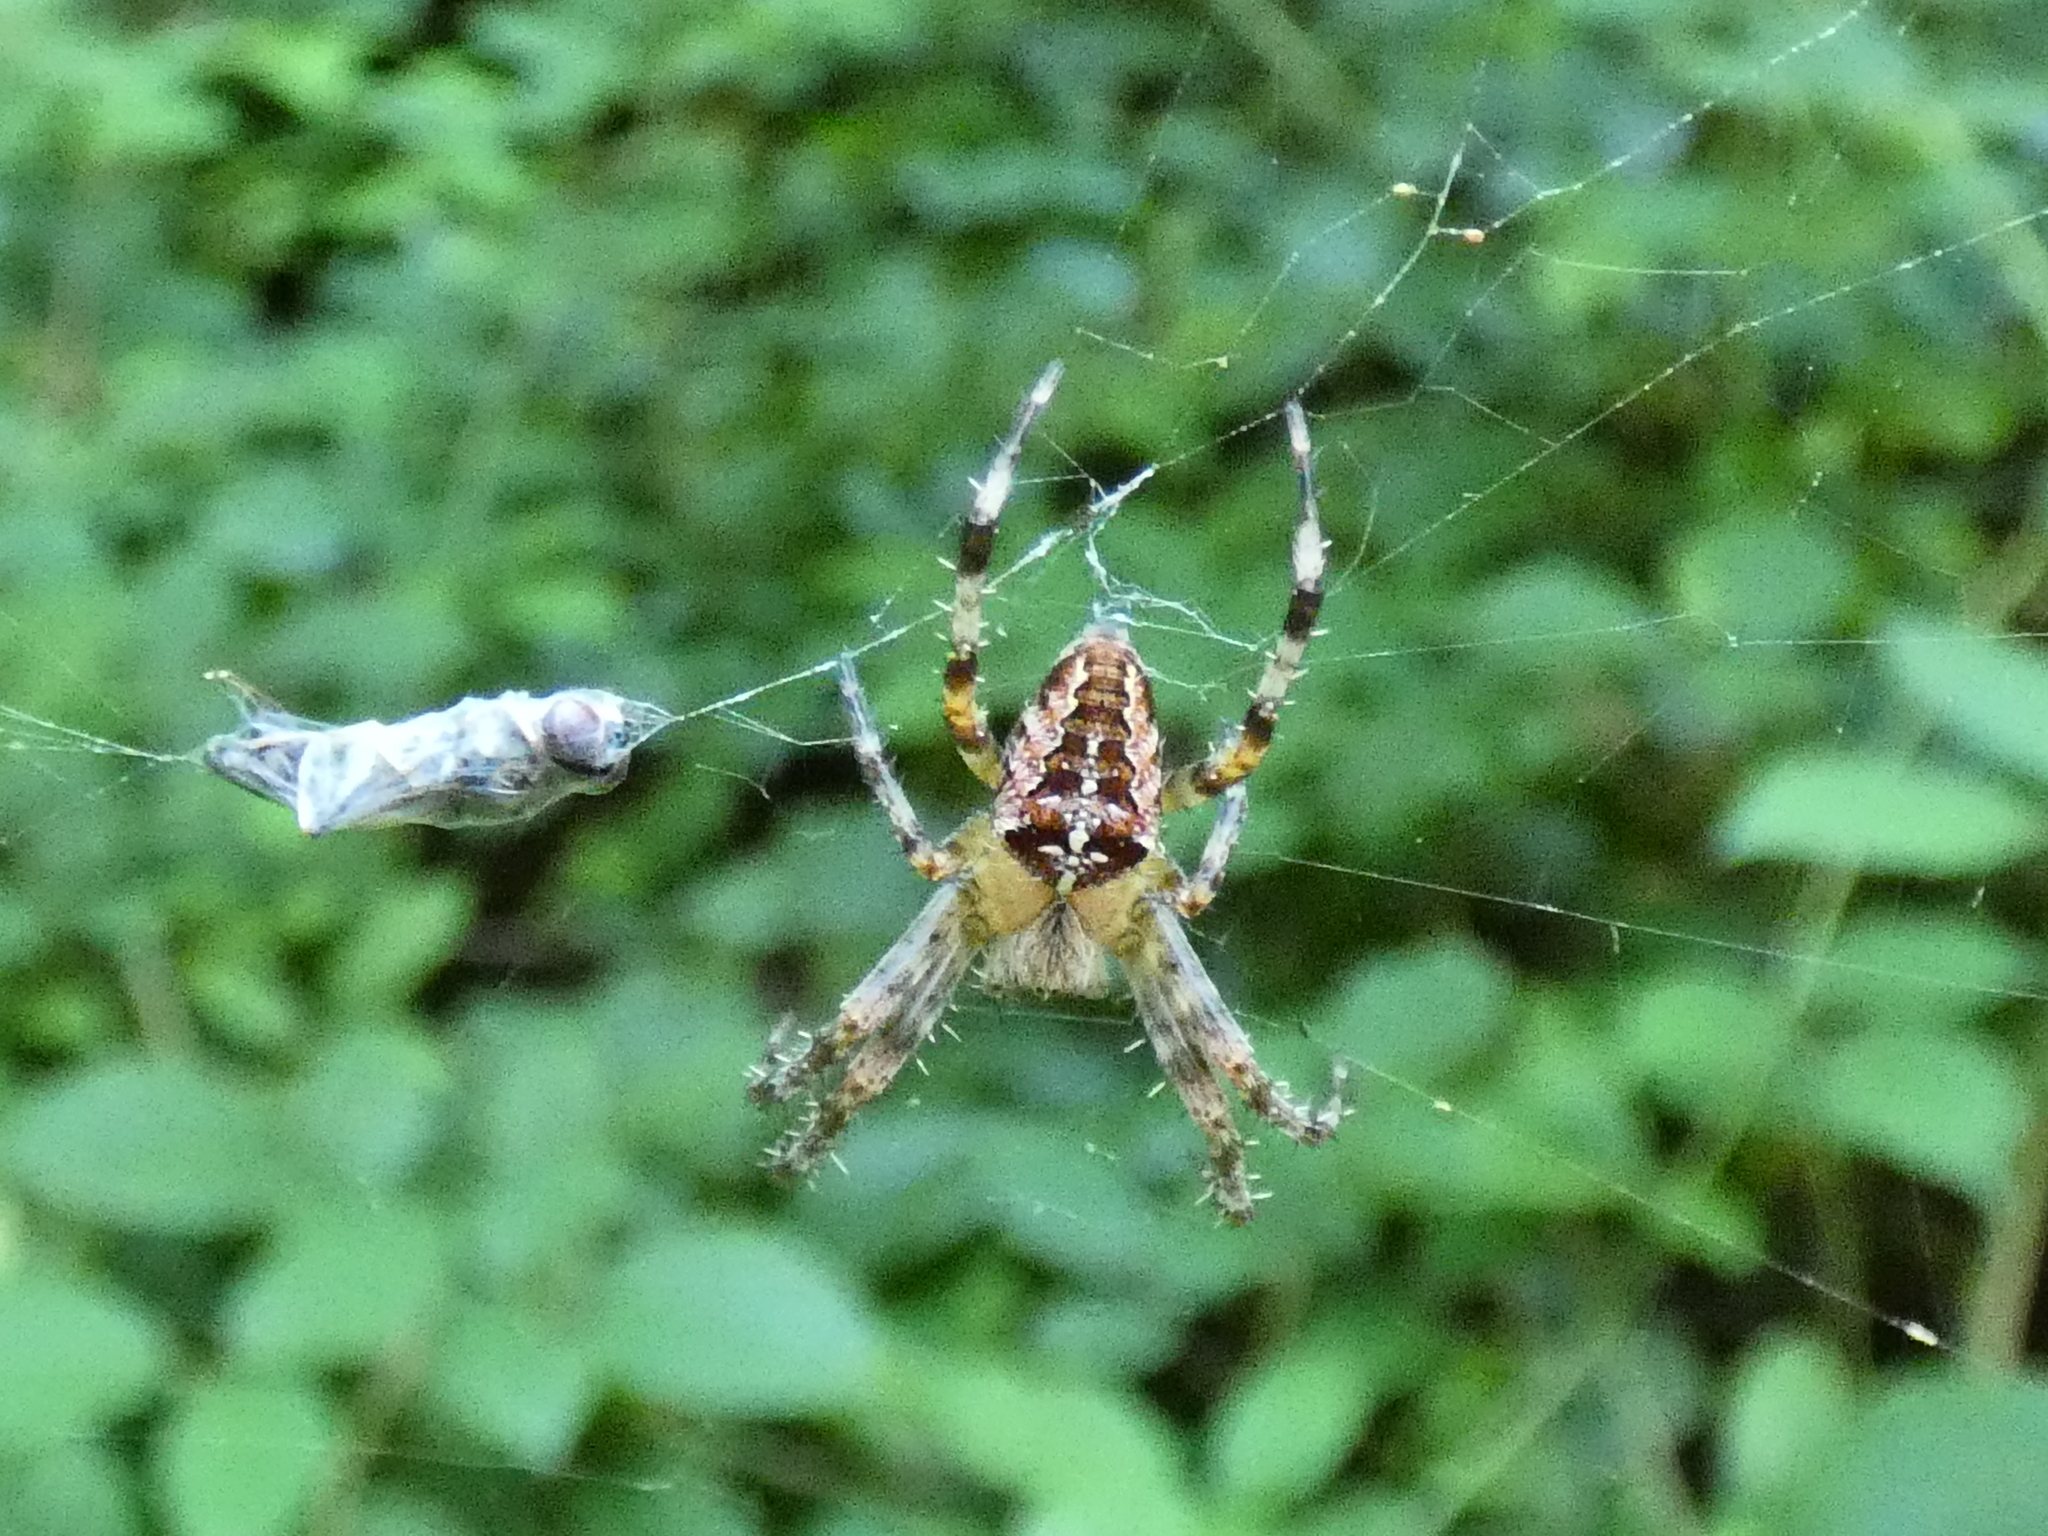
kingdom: Animalia
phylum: Arthropoda
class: Arachnida
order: Araneae
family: Araneidae
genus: Araneus
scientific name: Araneus diadematus
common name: Cross orbweaver
